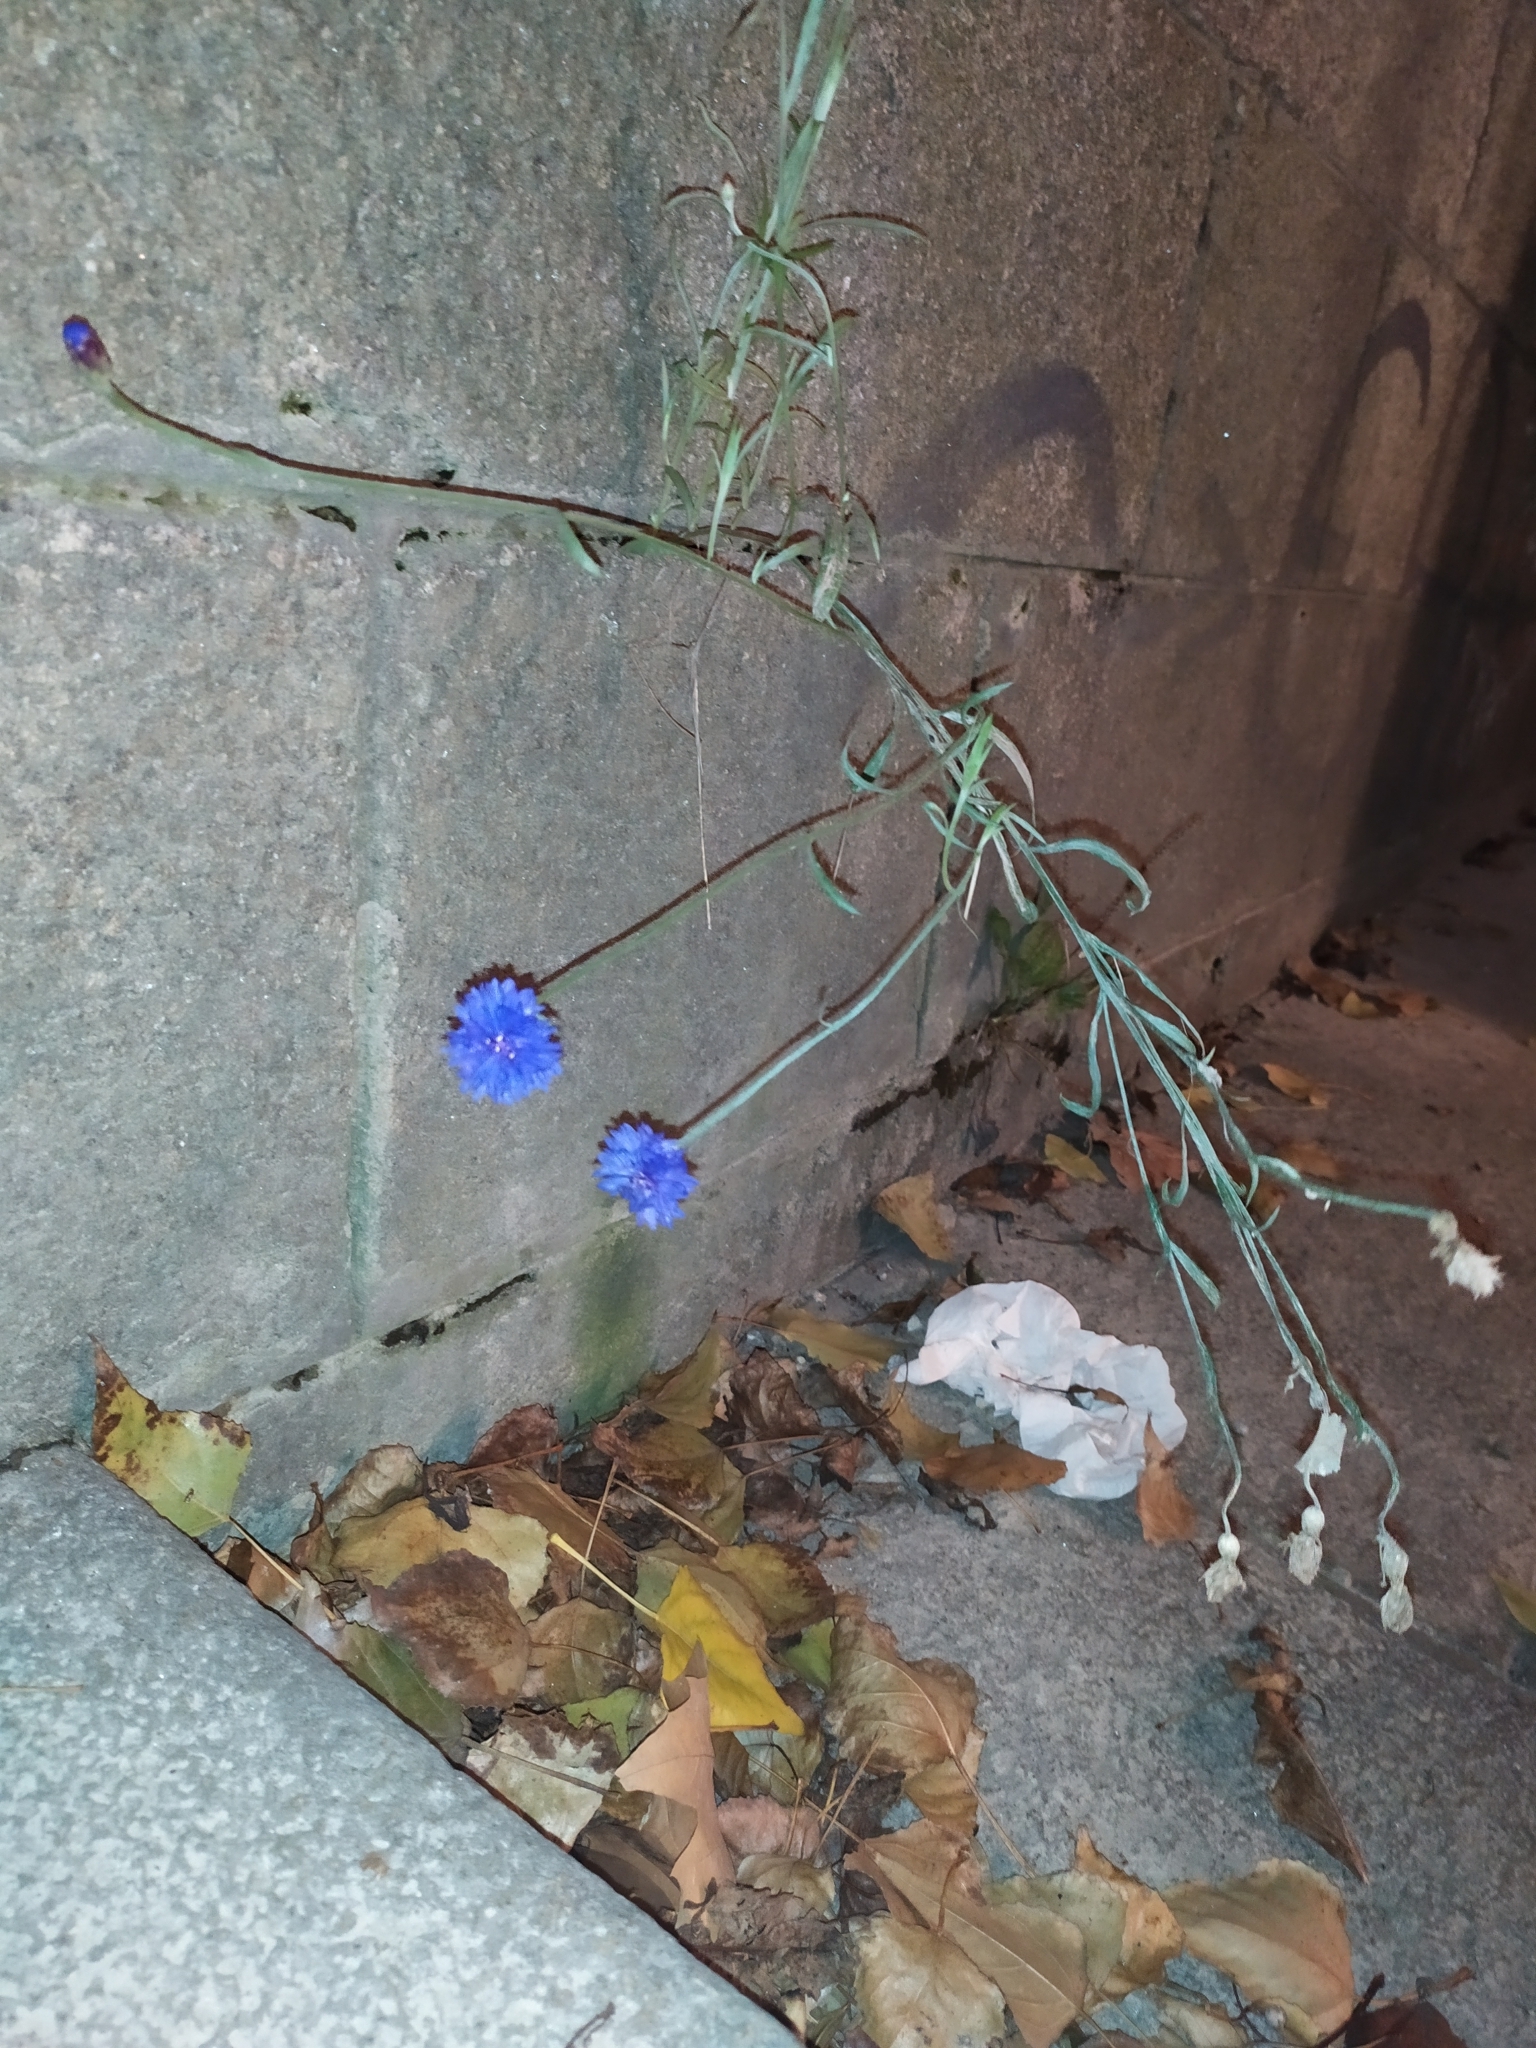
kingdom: Plantae
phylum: Tracheophyta
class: Magnoliopsida
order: Asterales
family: Asteraceae
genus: Centaurea
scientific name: Centaurea cyanus
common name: Cornflower
